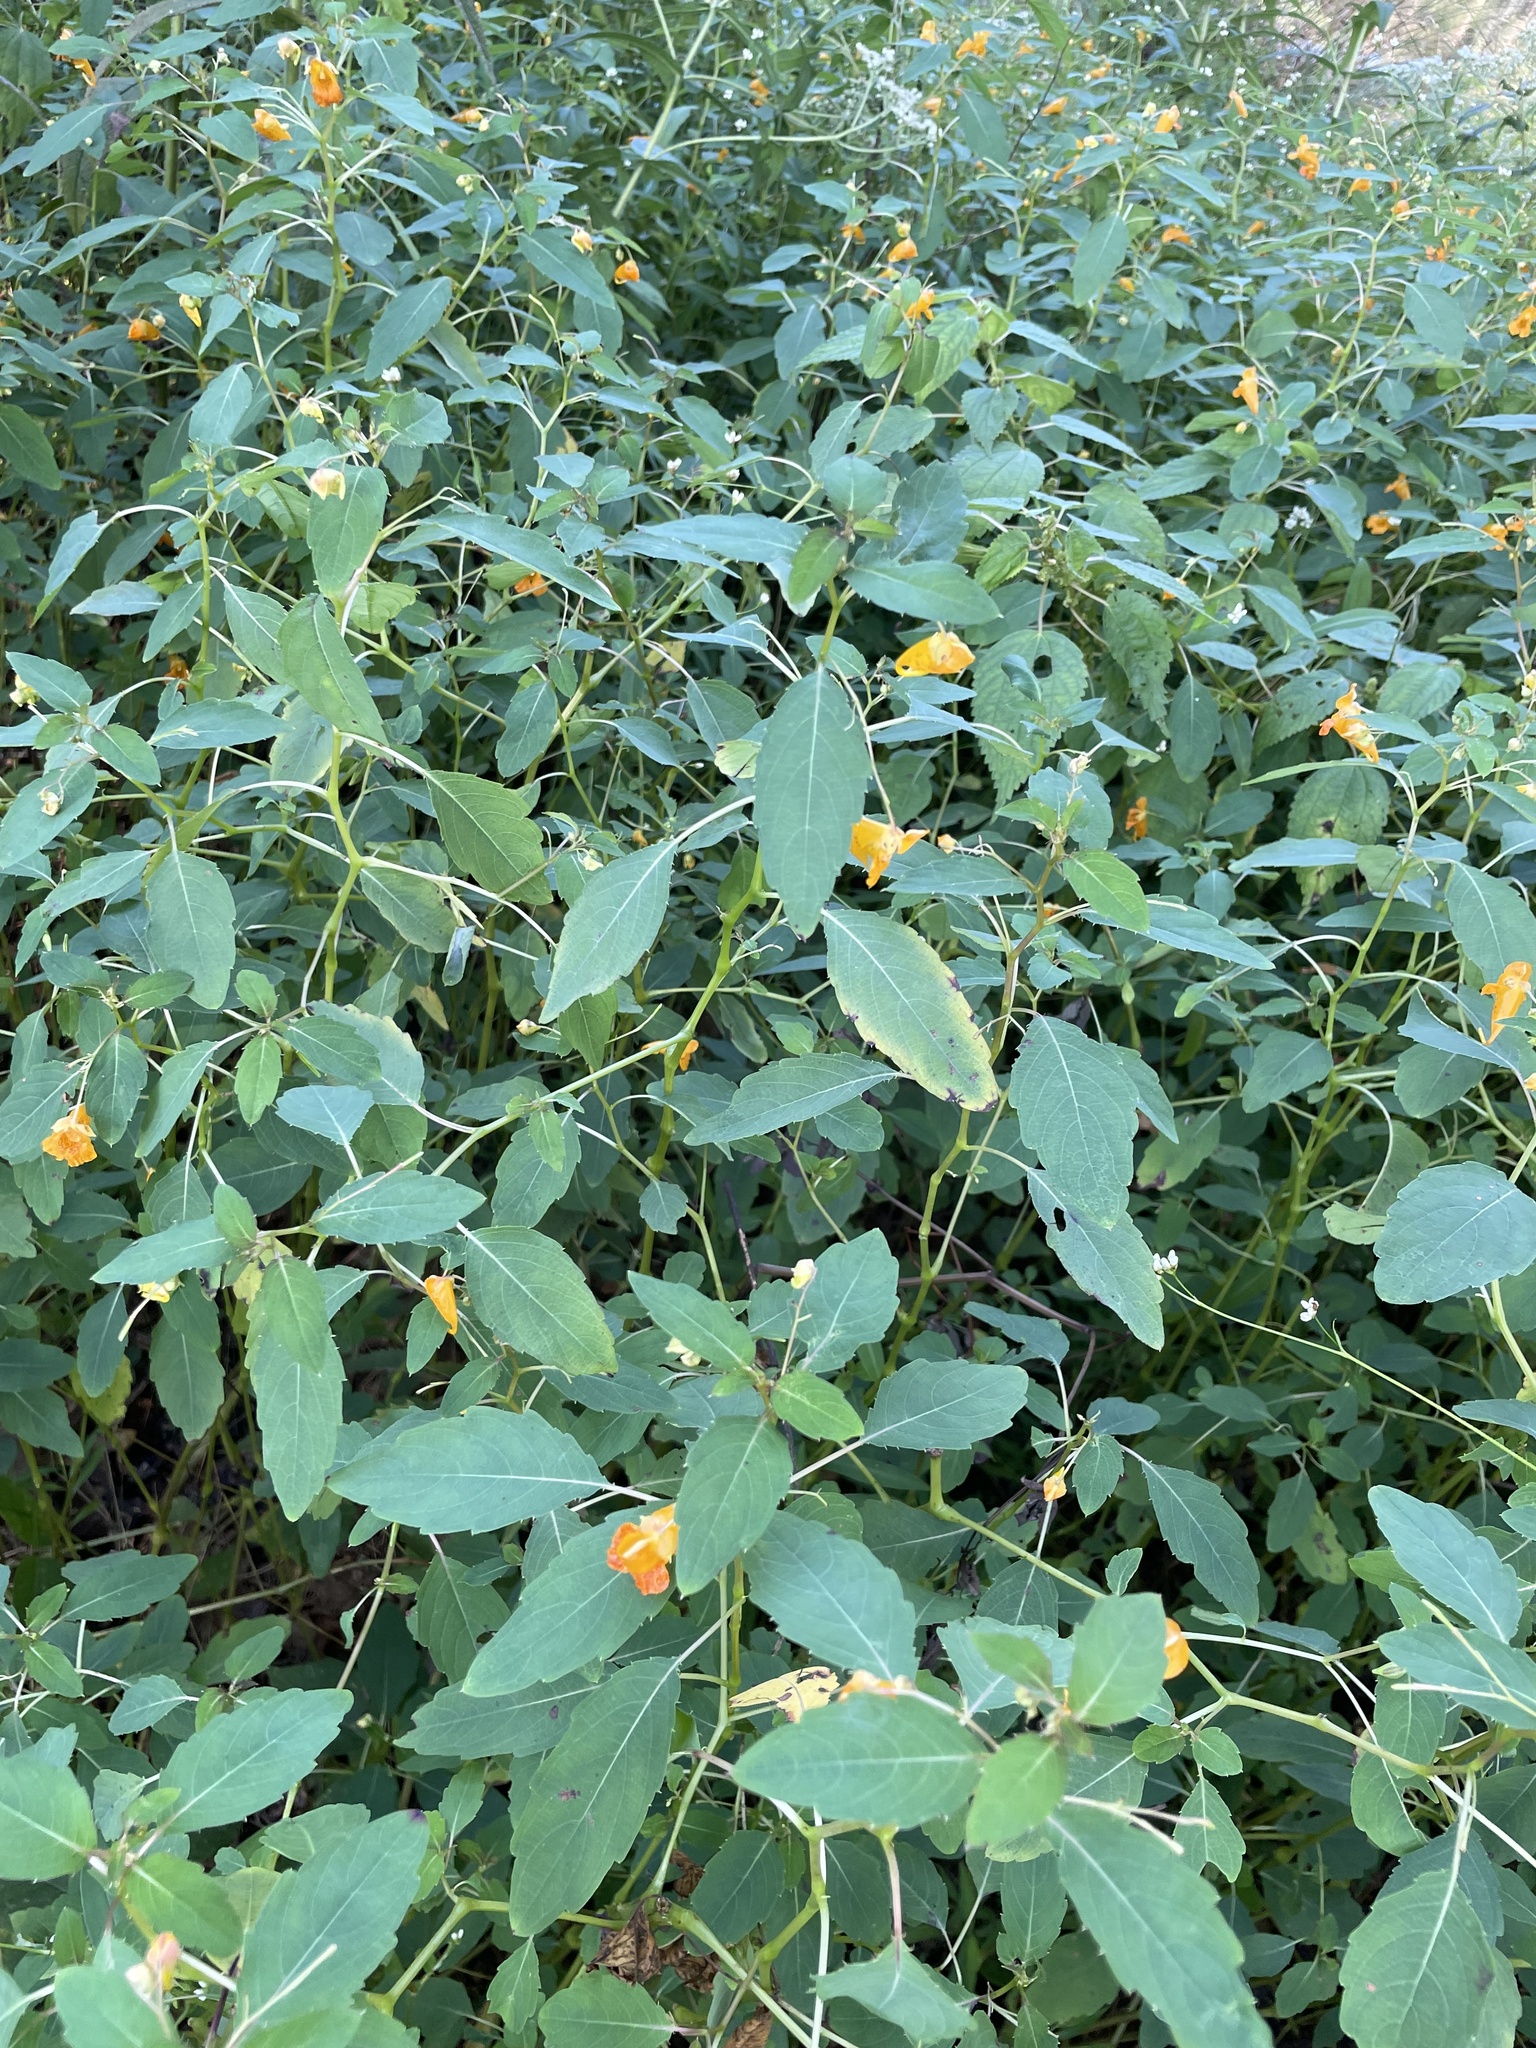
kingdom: Plantae
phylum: Tracheophyta
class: Magnoliopsida
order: Ericales
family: Balsaminaceae
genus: Impatiens
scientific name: Impatiens capensis
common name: Orange balsam
